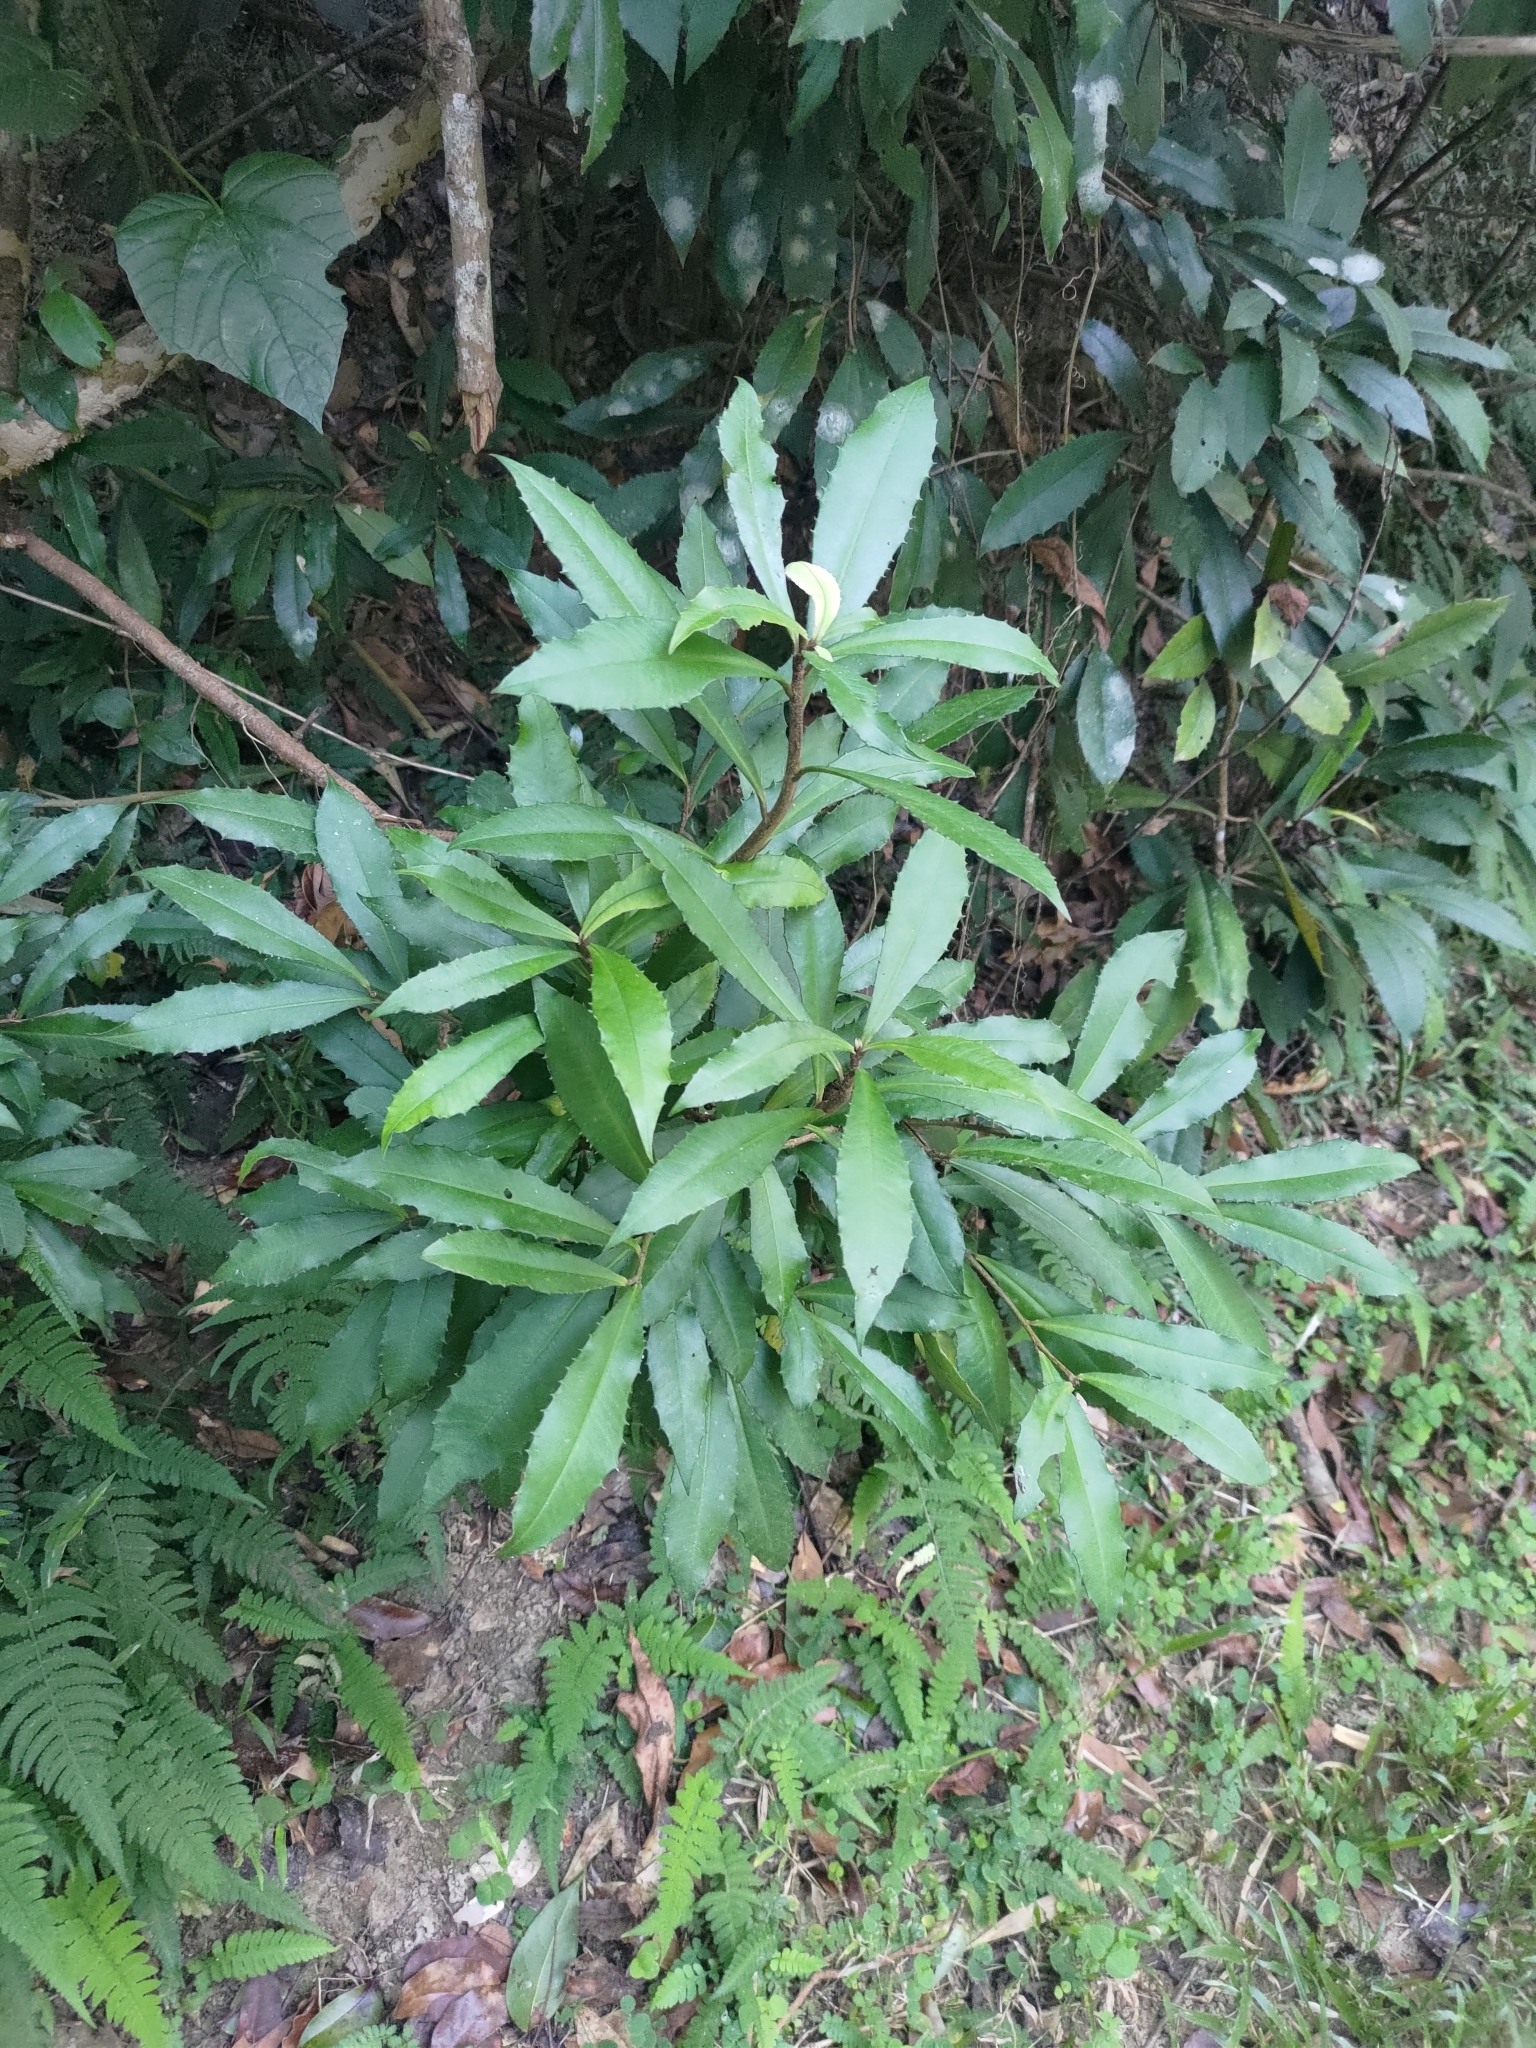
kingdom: Plantae
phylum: Tracheophyta
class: Magnoliopsida
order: Ericales
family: Primulaceae
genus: Ardisia
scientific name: Ardisia cornudentata
